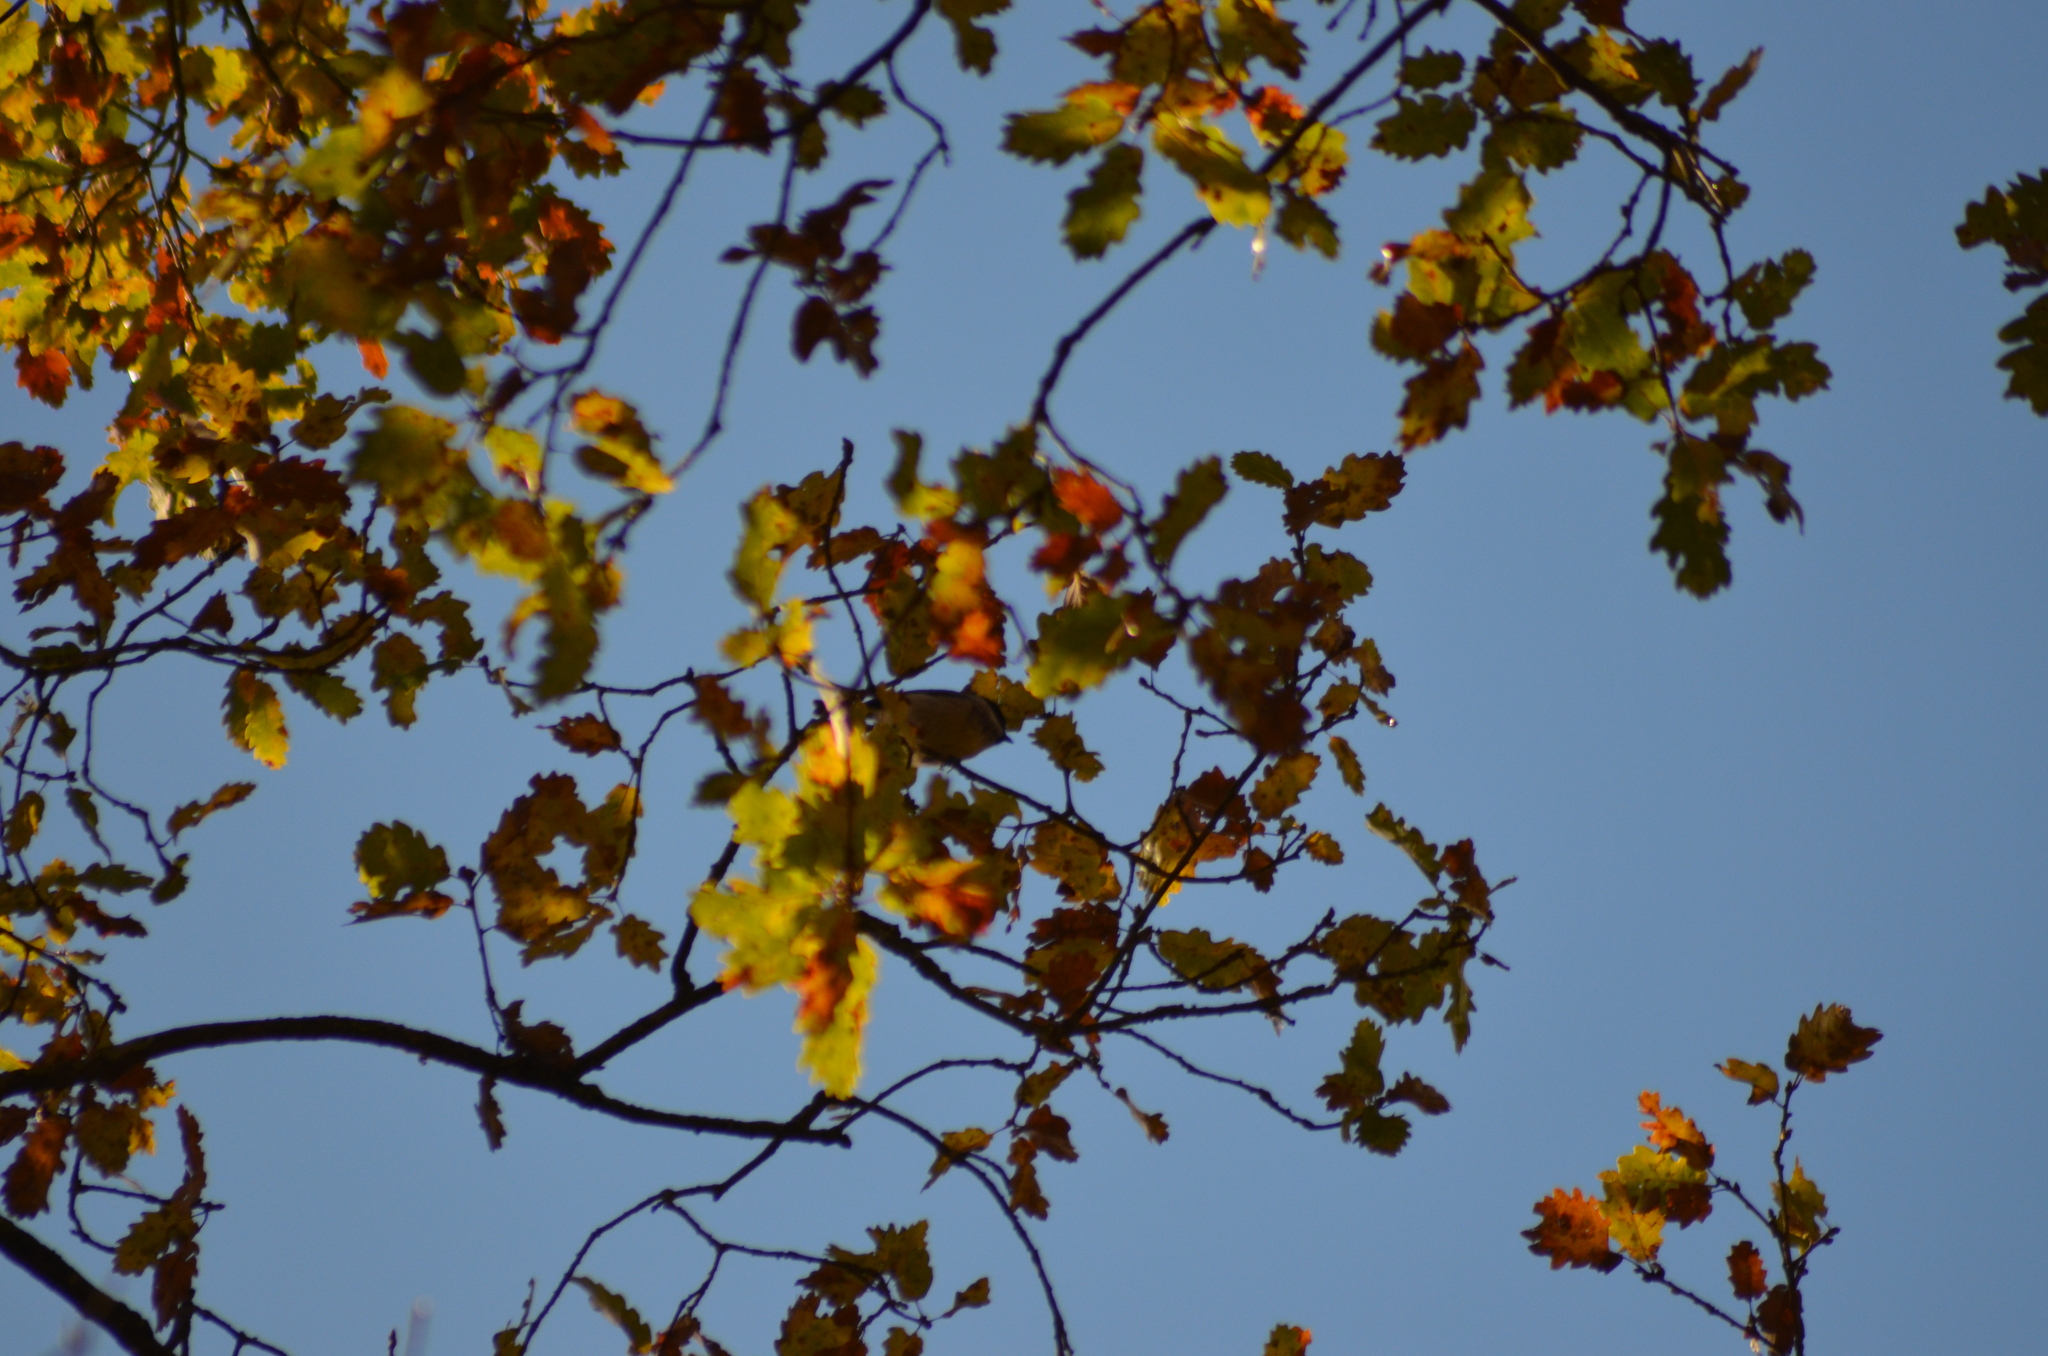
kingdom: Animalia
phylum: Chordata
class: Aves
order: Passeriformes
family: Paridae
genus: Poecile
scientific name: Poecile palustris
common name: Marsh tit
